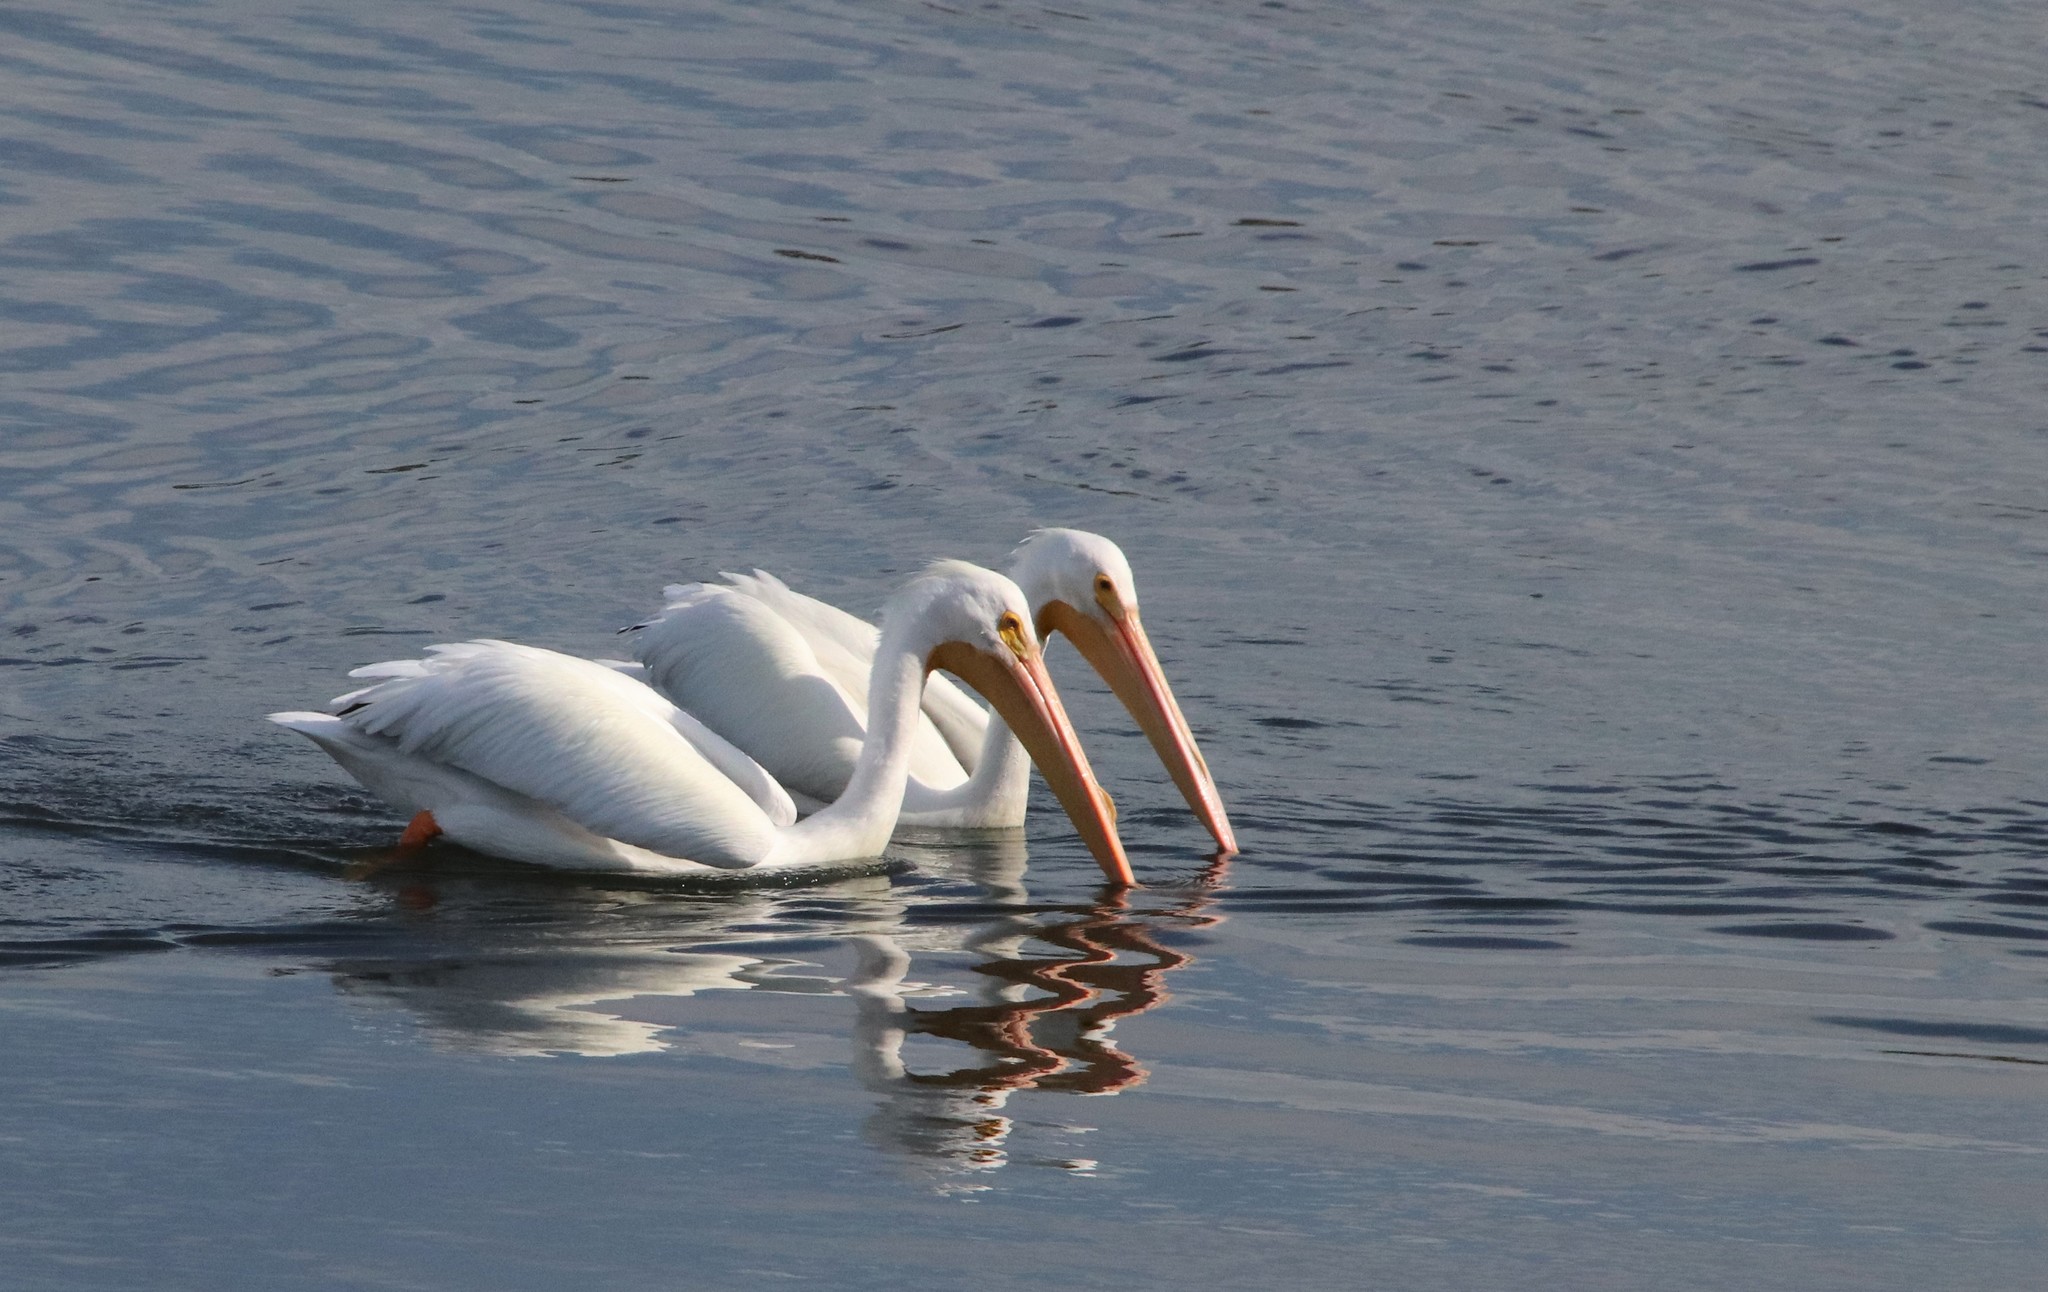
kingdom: Animalia
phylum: Chordata
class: Aves
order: Pelecaniformes
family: Pelecanidae
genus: Pelecanus
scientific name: Pelecanus erythrorhynchos
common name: American white pelican
